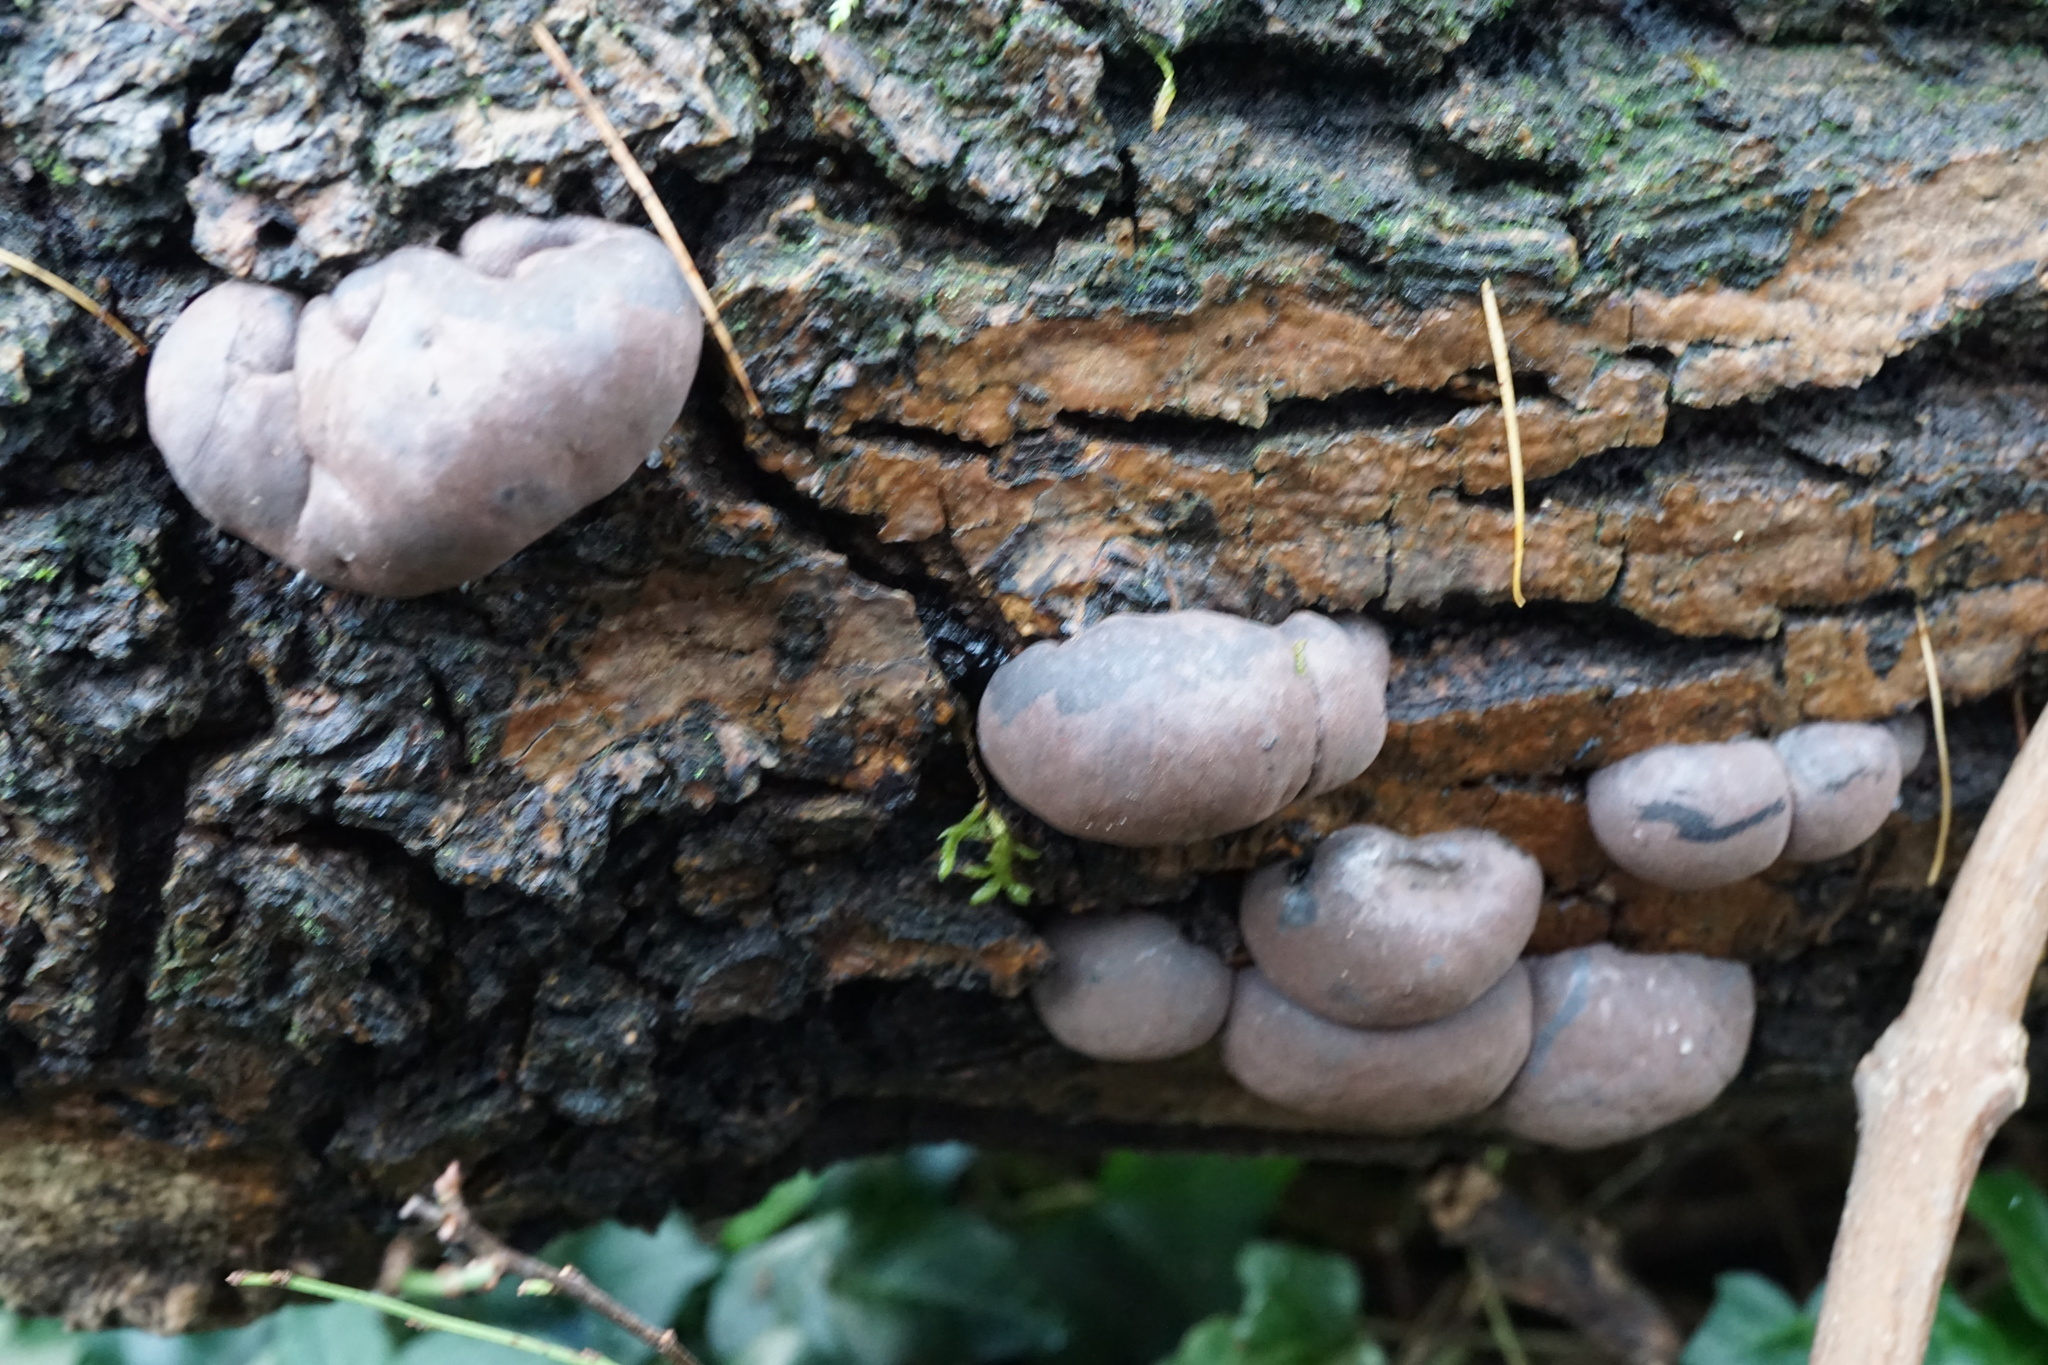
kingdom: Fungi
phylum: Ascomycota
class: Sordariomycetes
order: Xylariales
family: Hypoxylaceae
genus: Daldinia
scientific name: Daldinia concentrica
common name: Cramp balls
